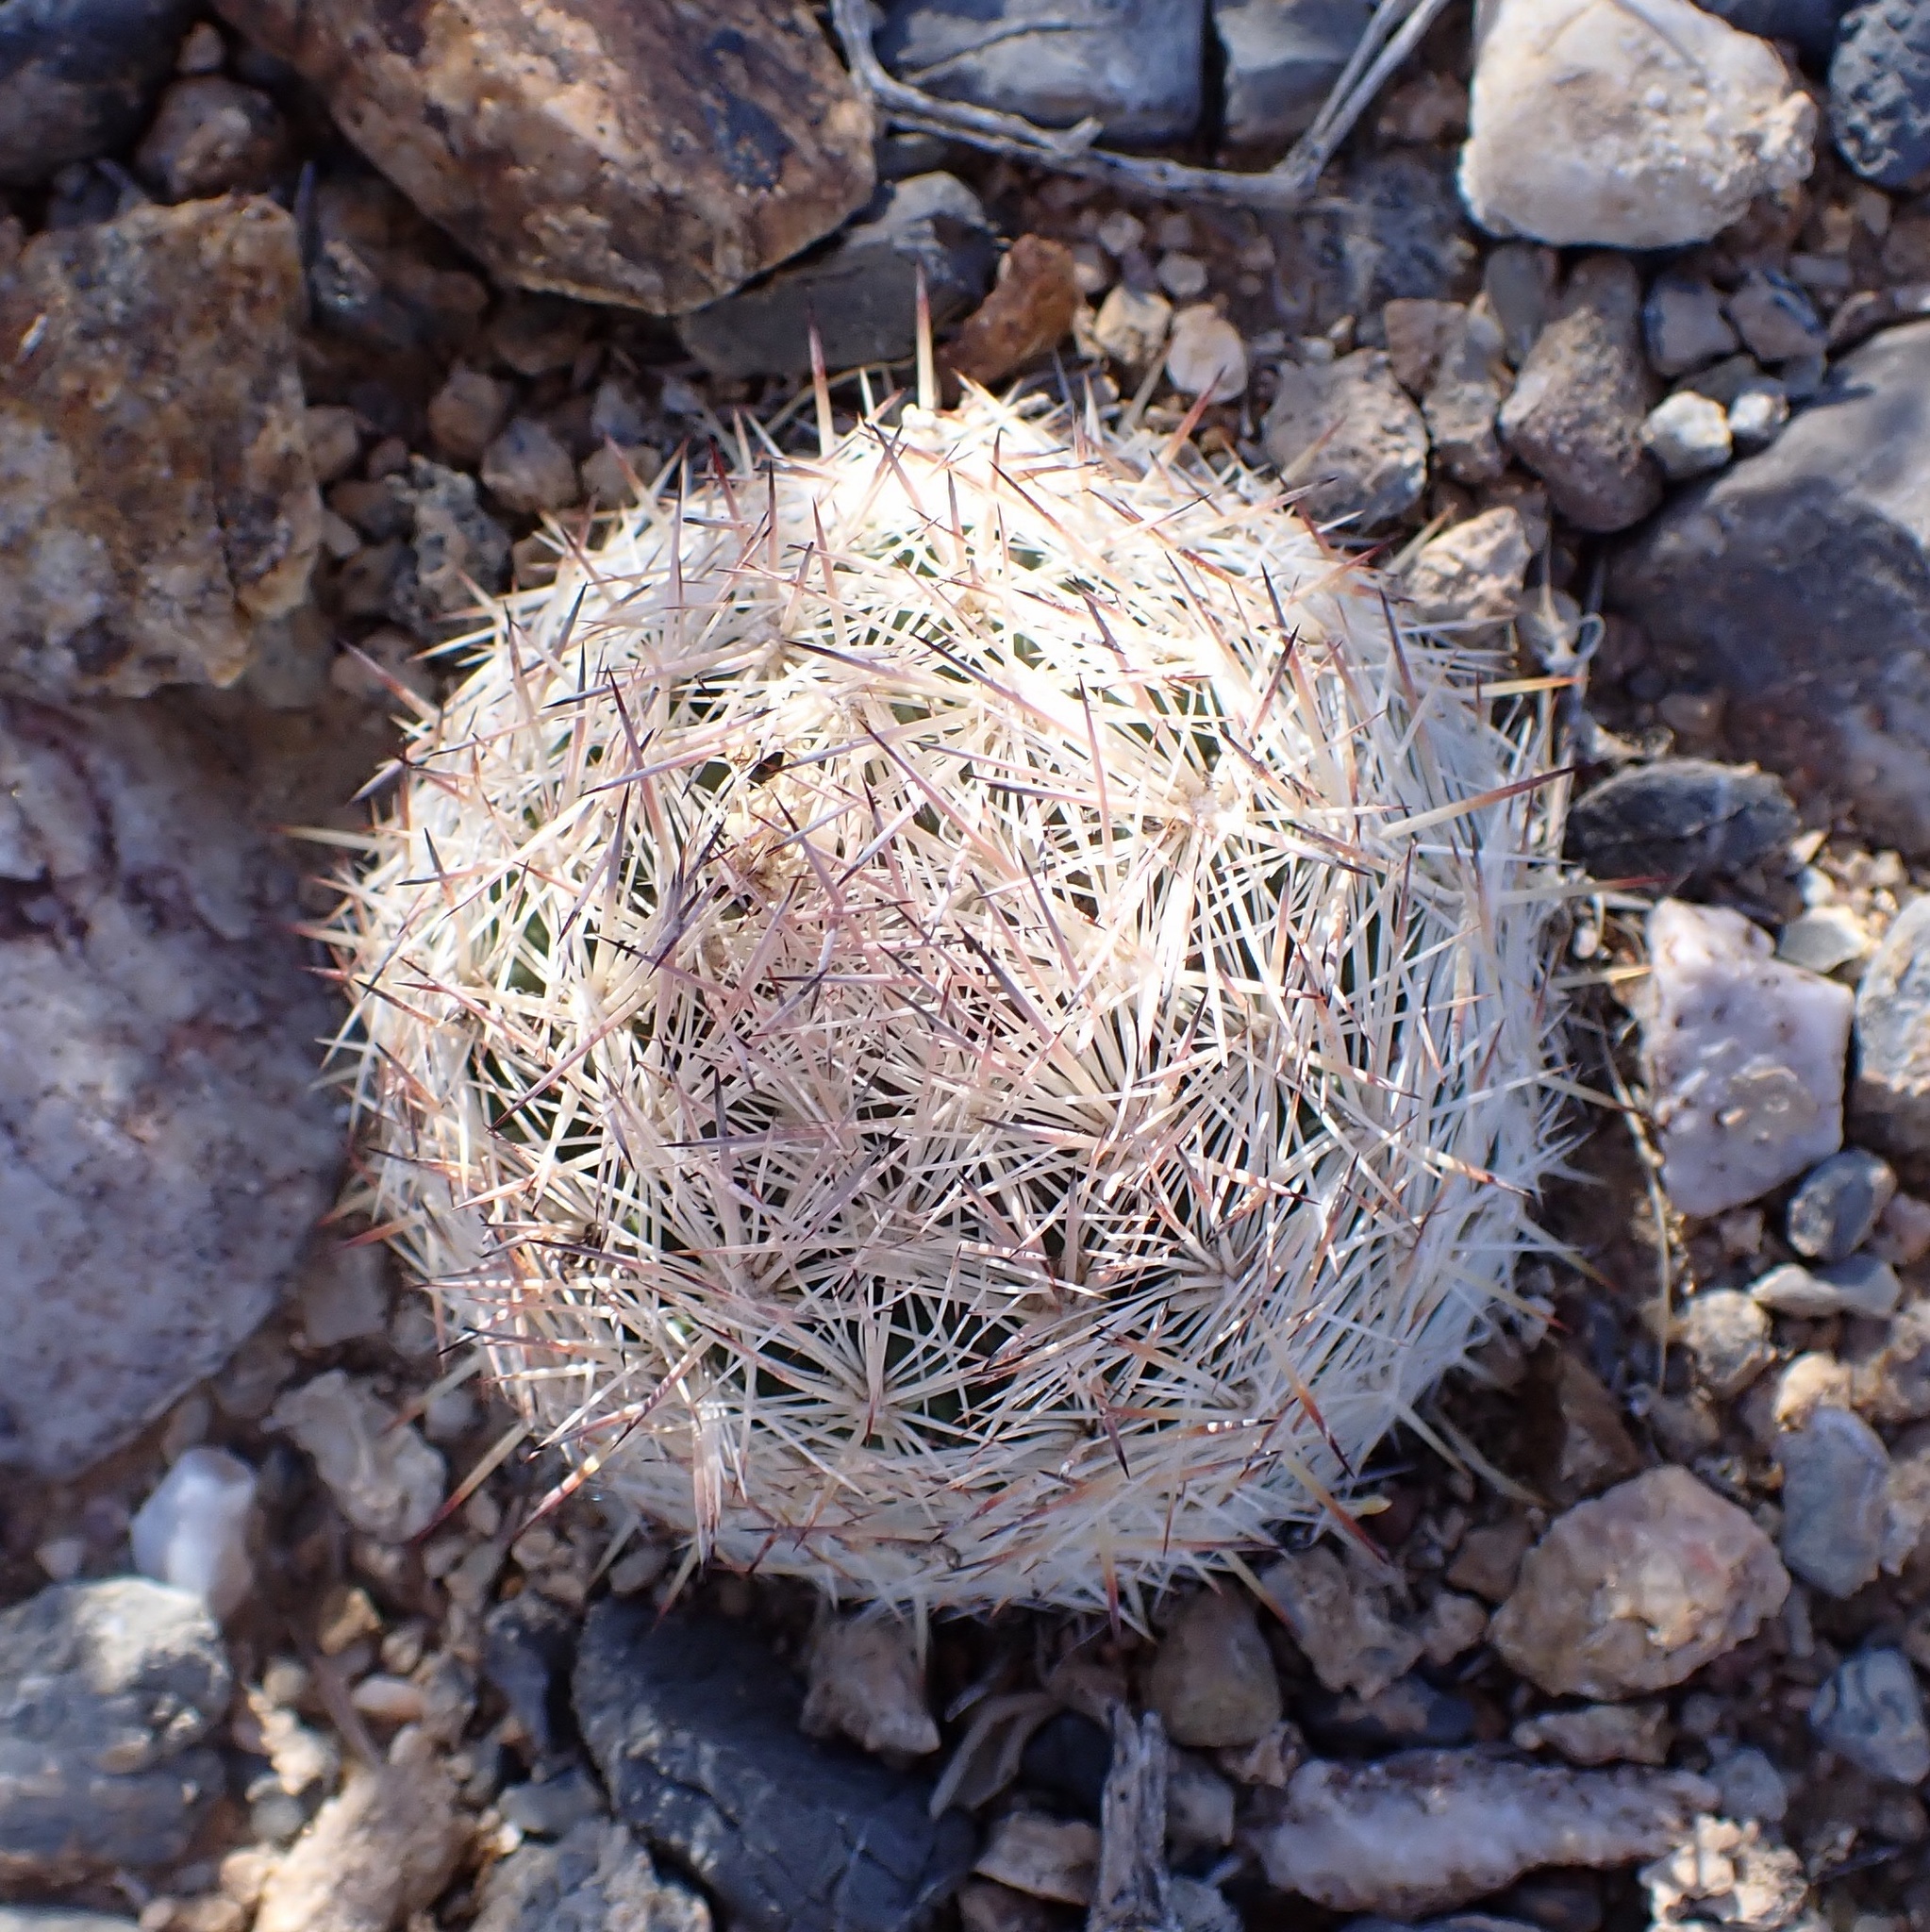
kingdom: Plantae
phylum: Tracheophyta
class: Magnoliopsida
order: Caryophyllales
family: Cactaceae
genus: Pelecyphora
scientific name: Pelecyphora dasyacantha
